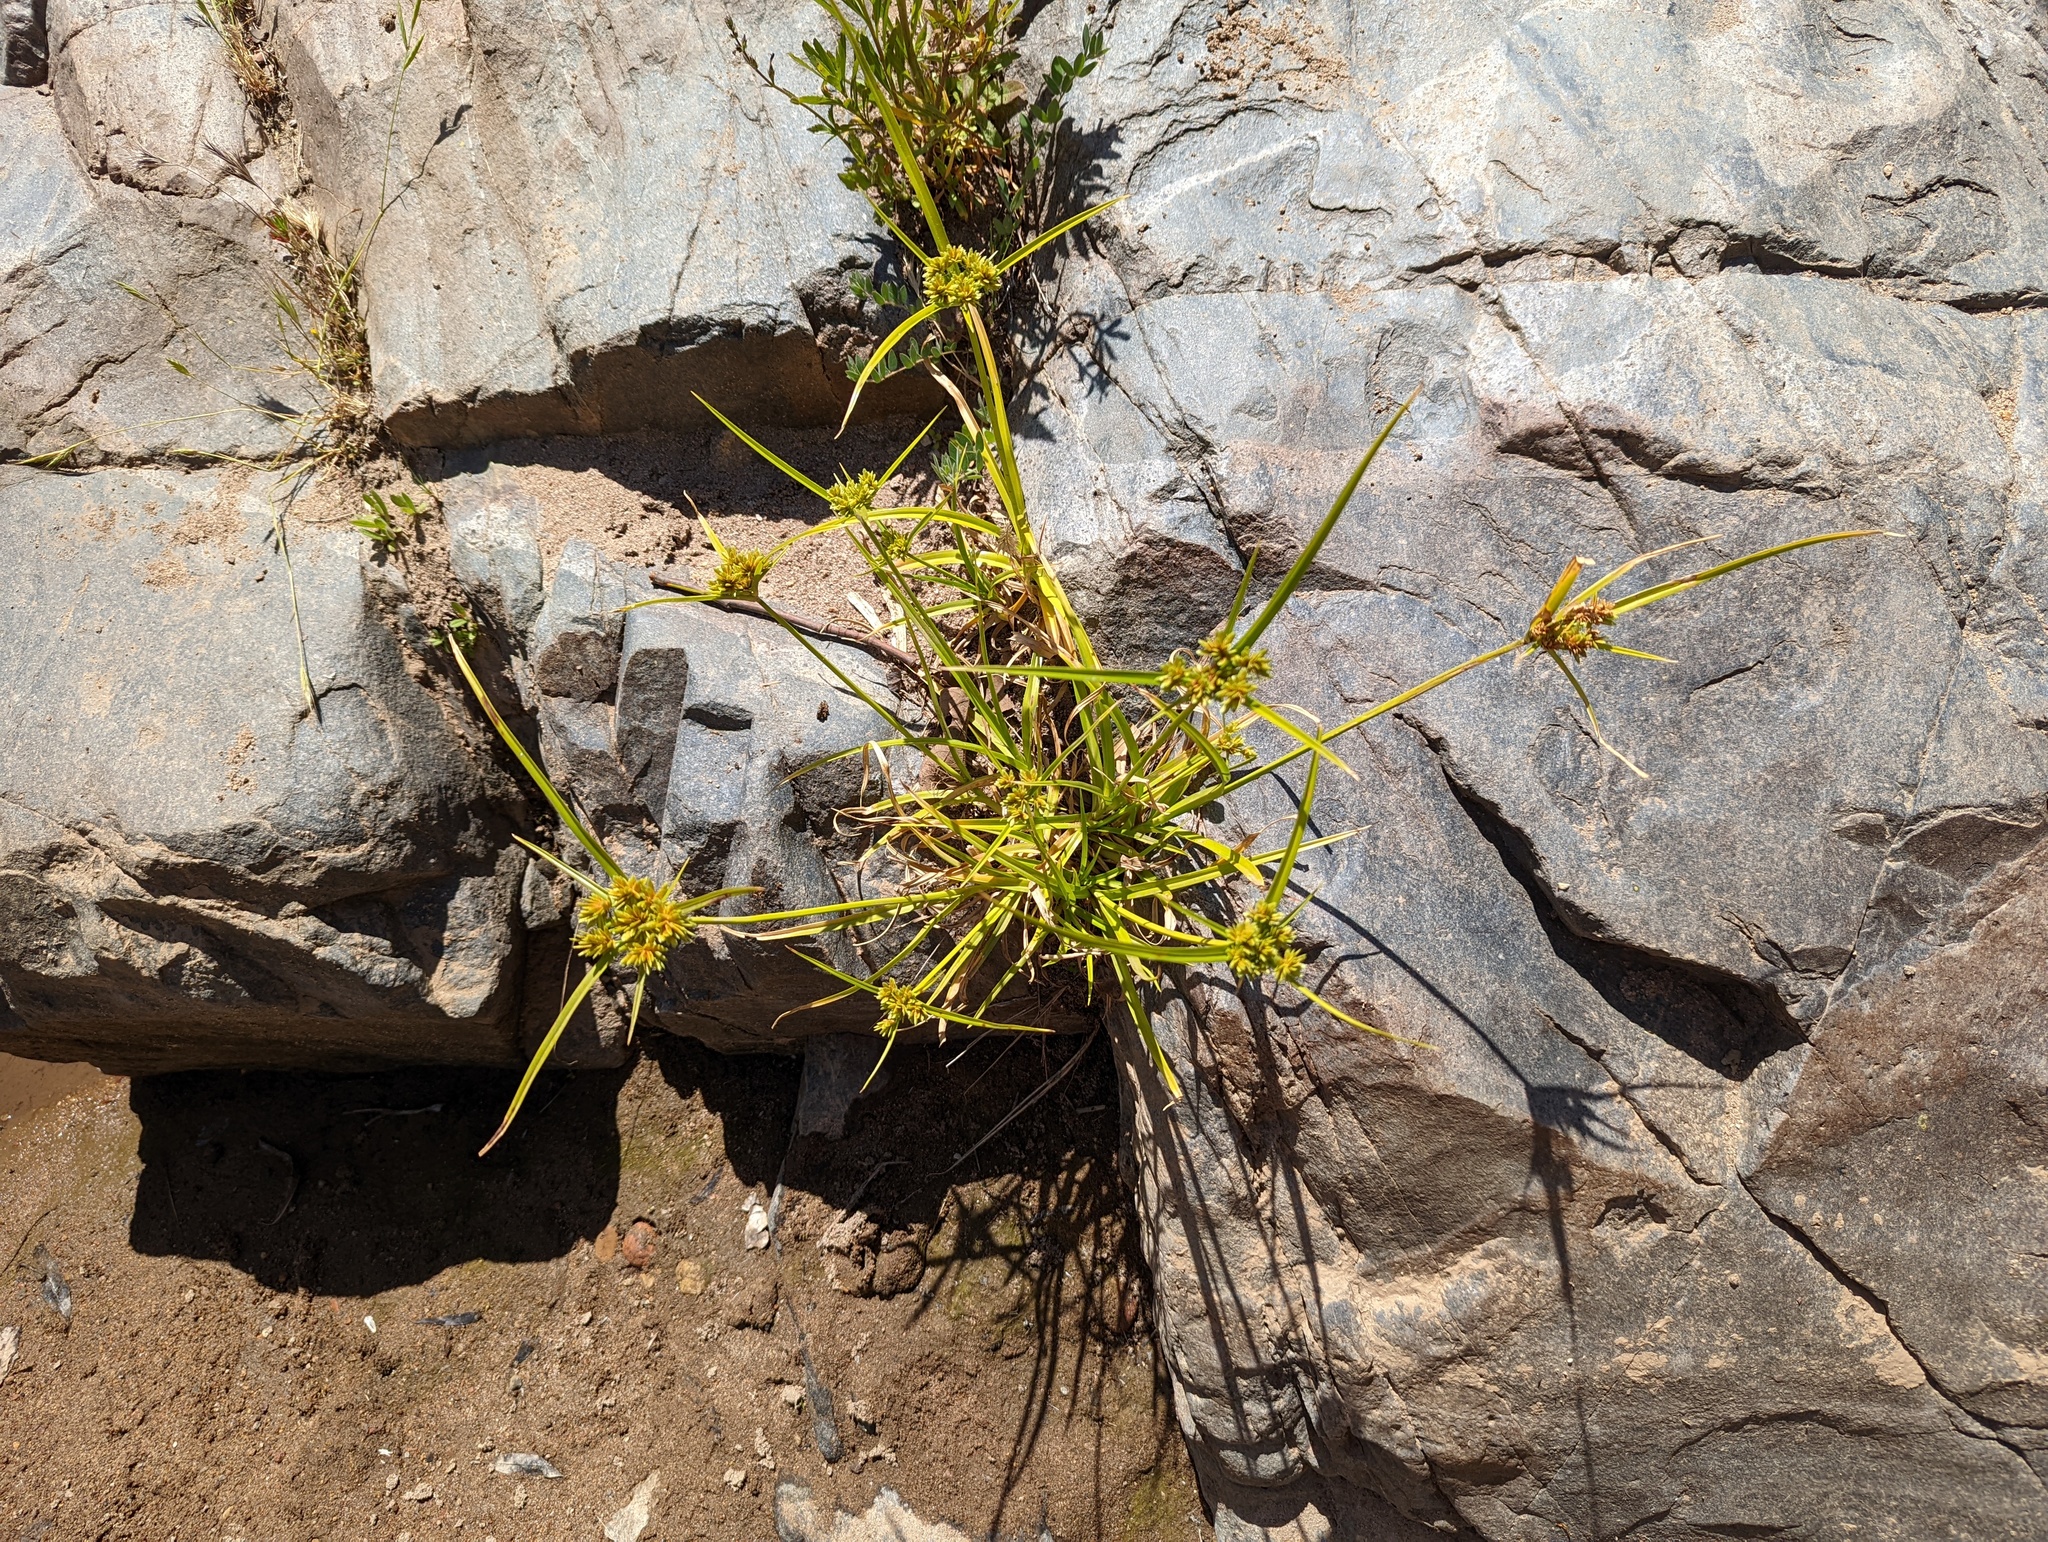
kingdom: Plantae
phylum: Tracheophyta
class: Liliopsida
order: Poales
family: Cyperaceae
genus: Cyperus
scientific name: Cyperus eragrostis
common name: Tall flatsedge
